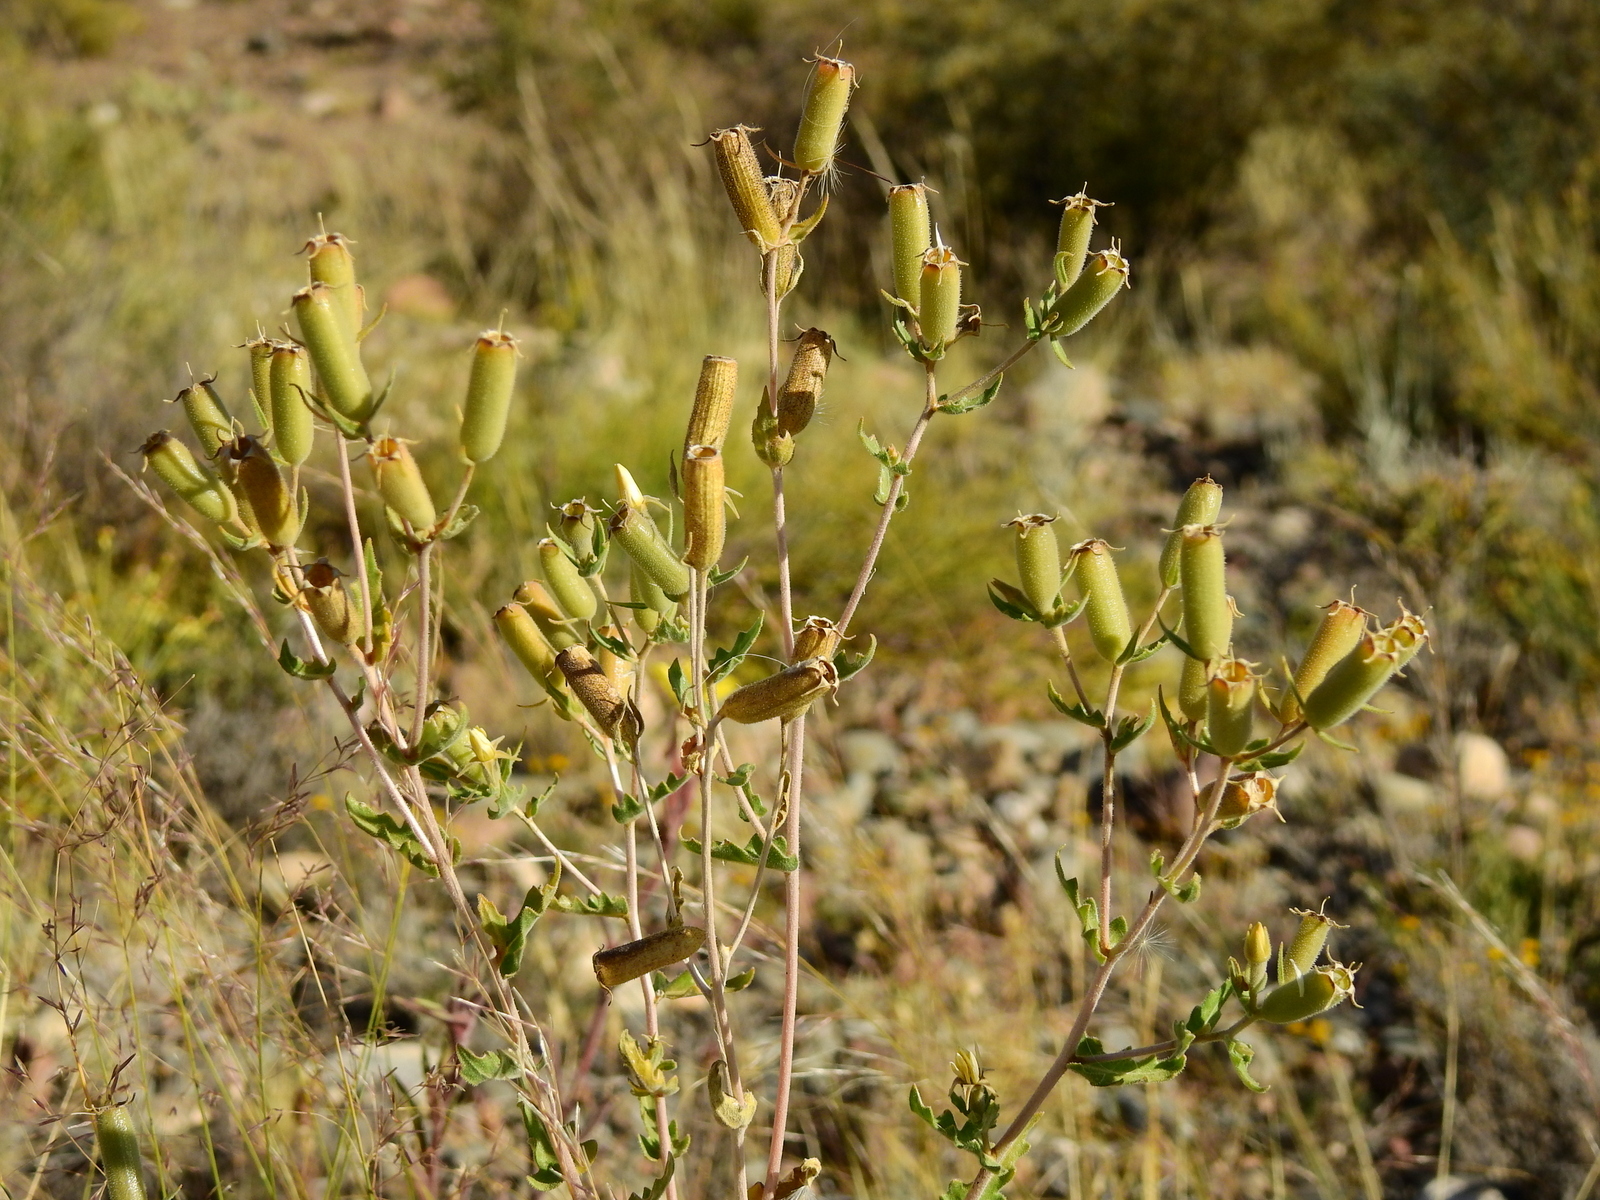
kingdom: Plantae
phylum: Tracheophyta
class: Magnoliopsida
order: Cornales
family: Loasaceae
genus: Mentzelia
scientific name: Mentzelia albescens
